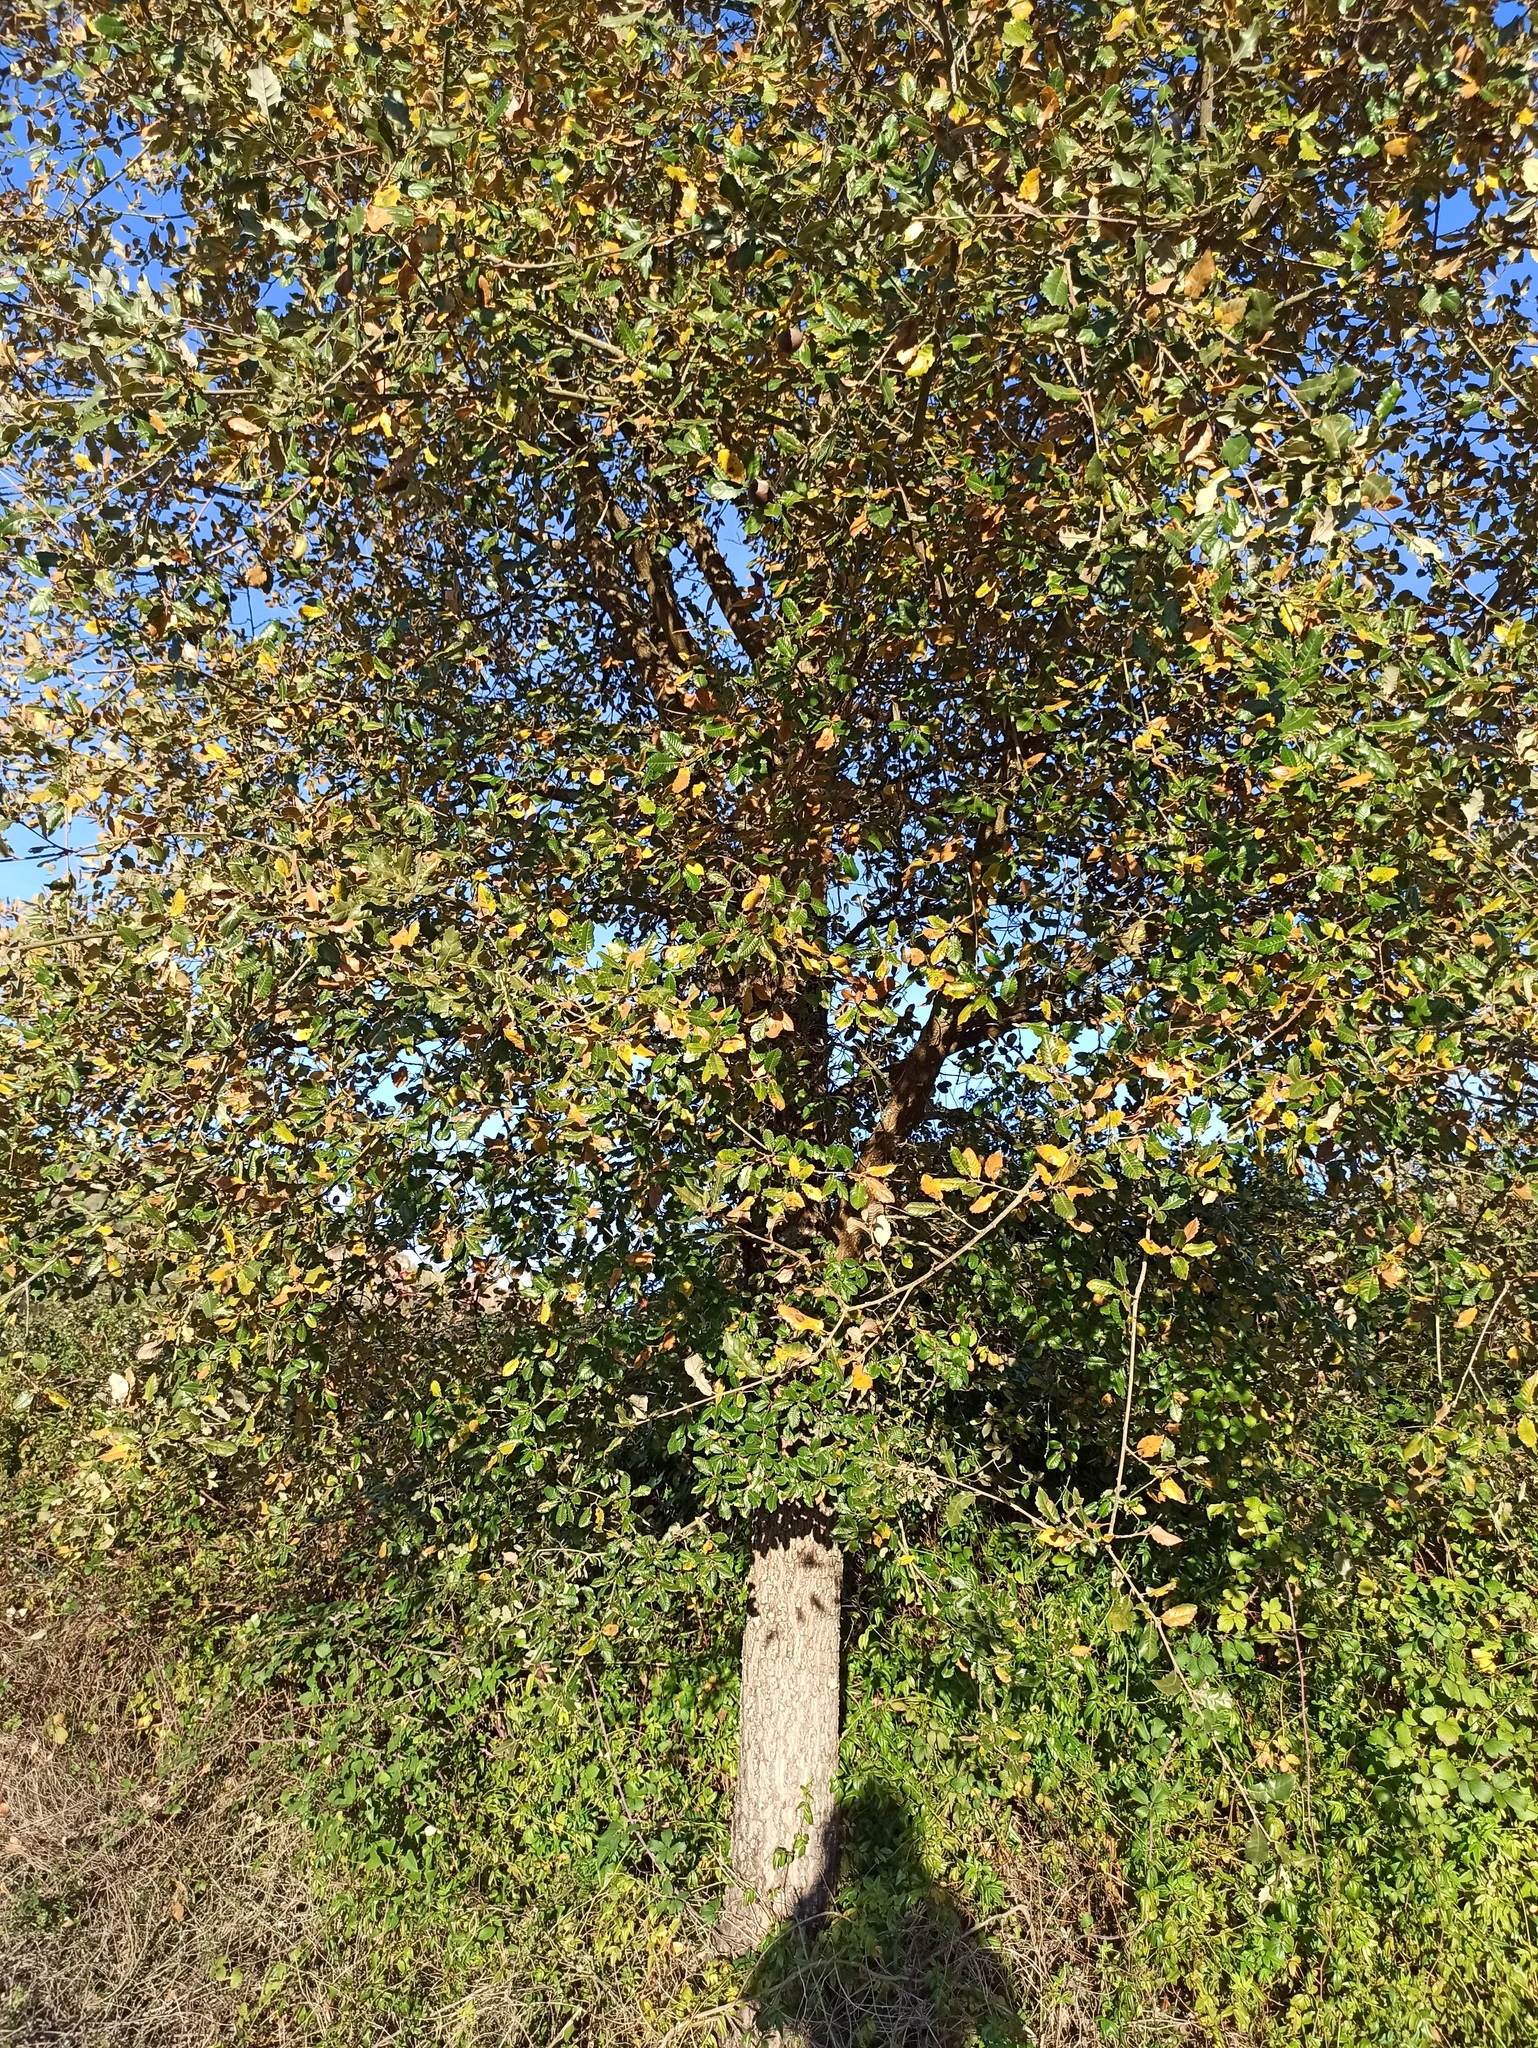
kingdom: Plantae
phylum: Tracheophyta
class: Magnoliopsida
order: Fagales
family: Fagaceae
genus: Quercus
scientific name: Quercus faginea
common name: Gall oak tree
